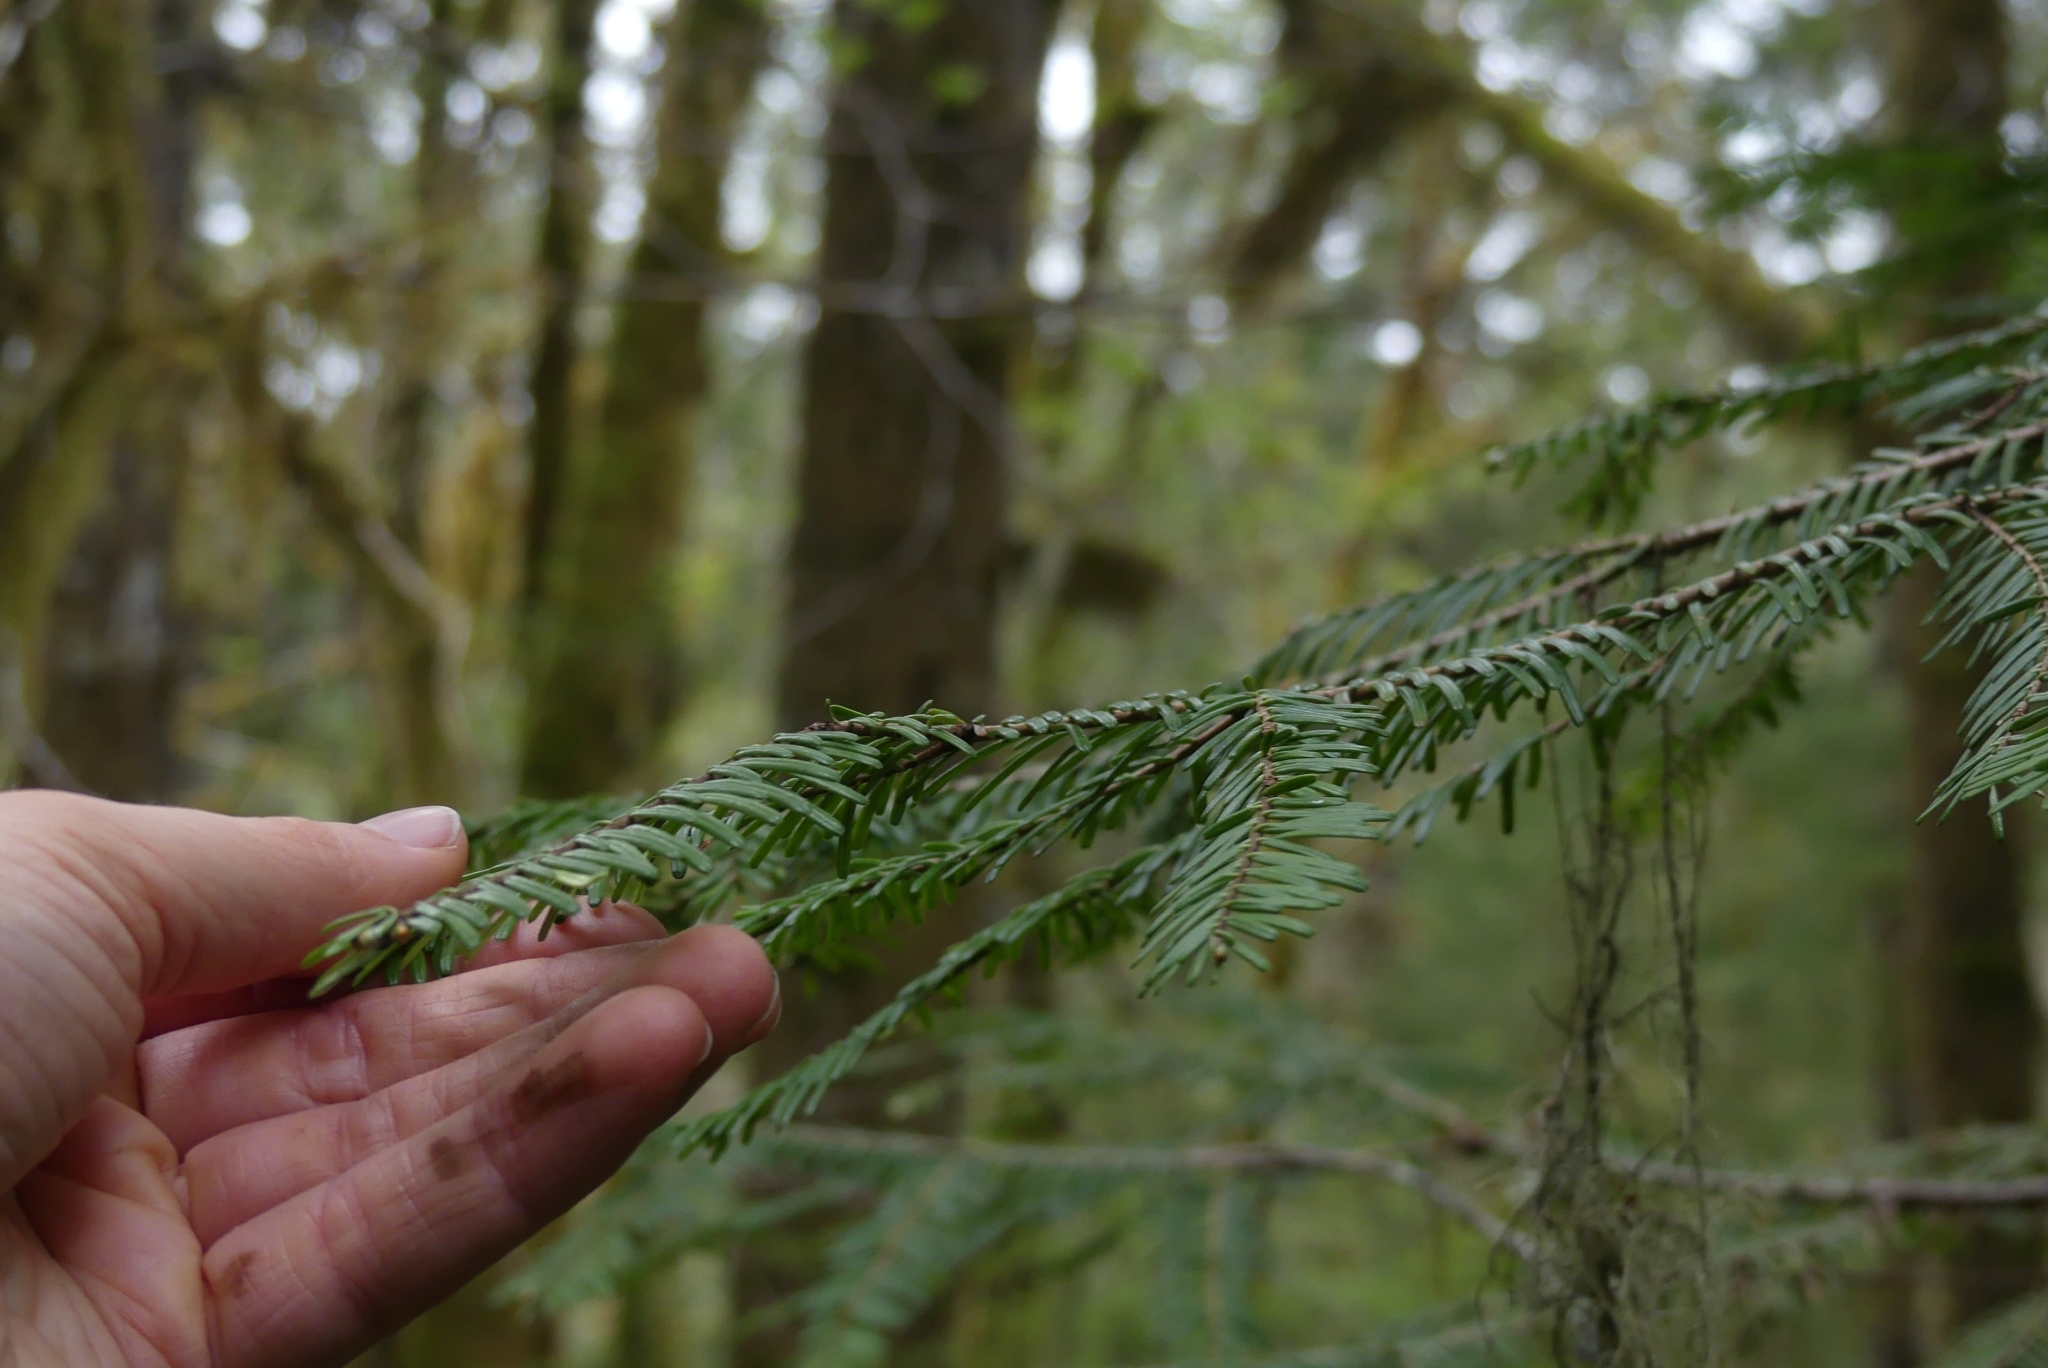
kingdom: Plantae
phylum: Tracheophyta
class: Pinopsida
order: Pinales
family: Pinaceae
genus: Abies
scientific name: Abies grandis
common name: Giant fir
